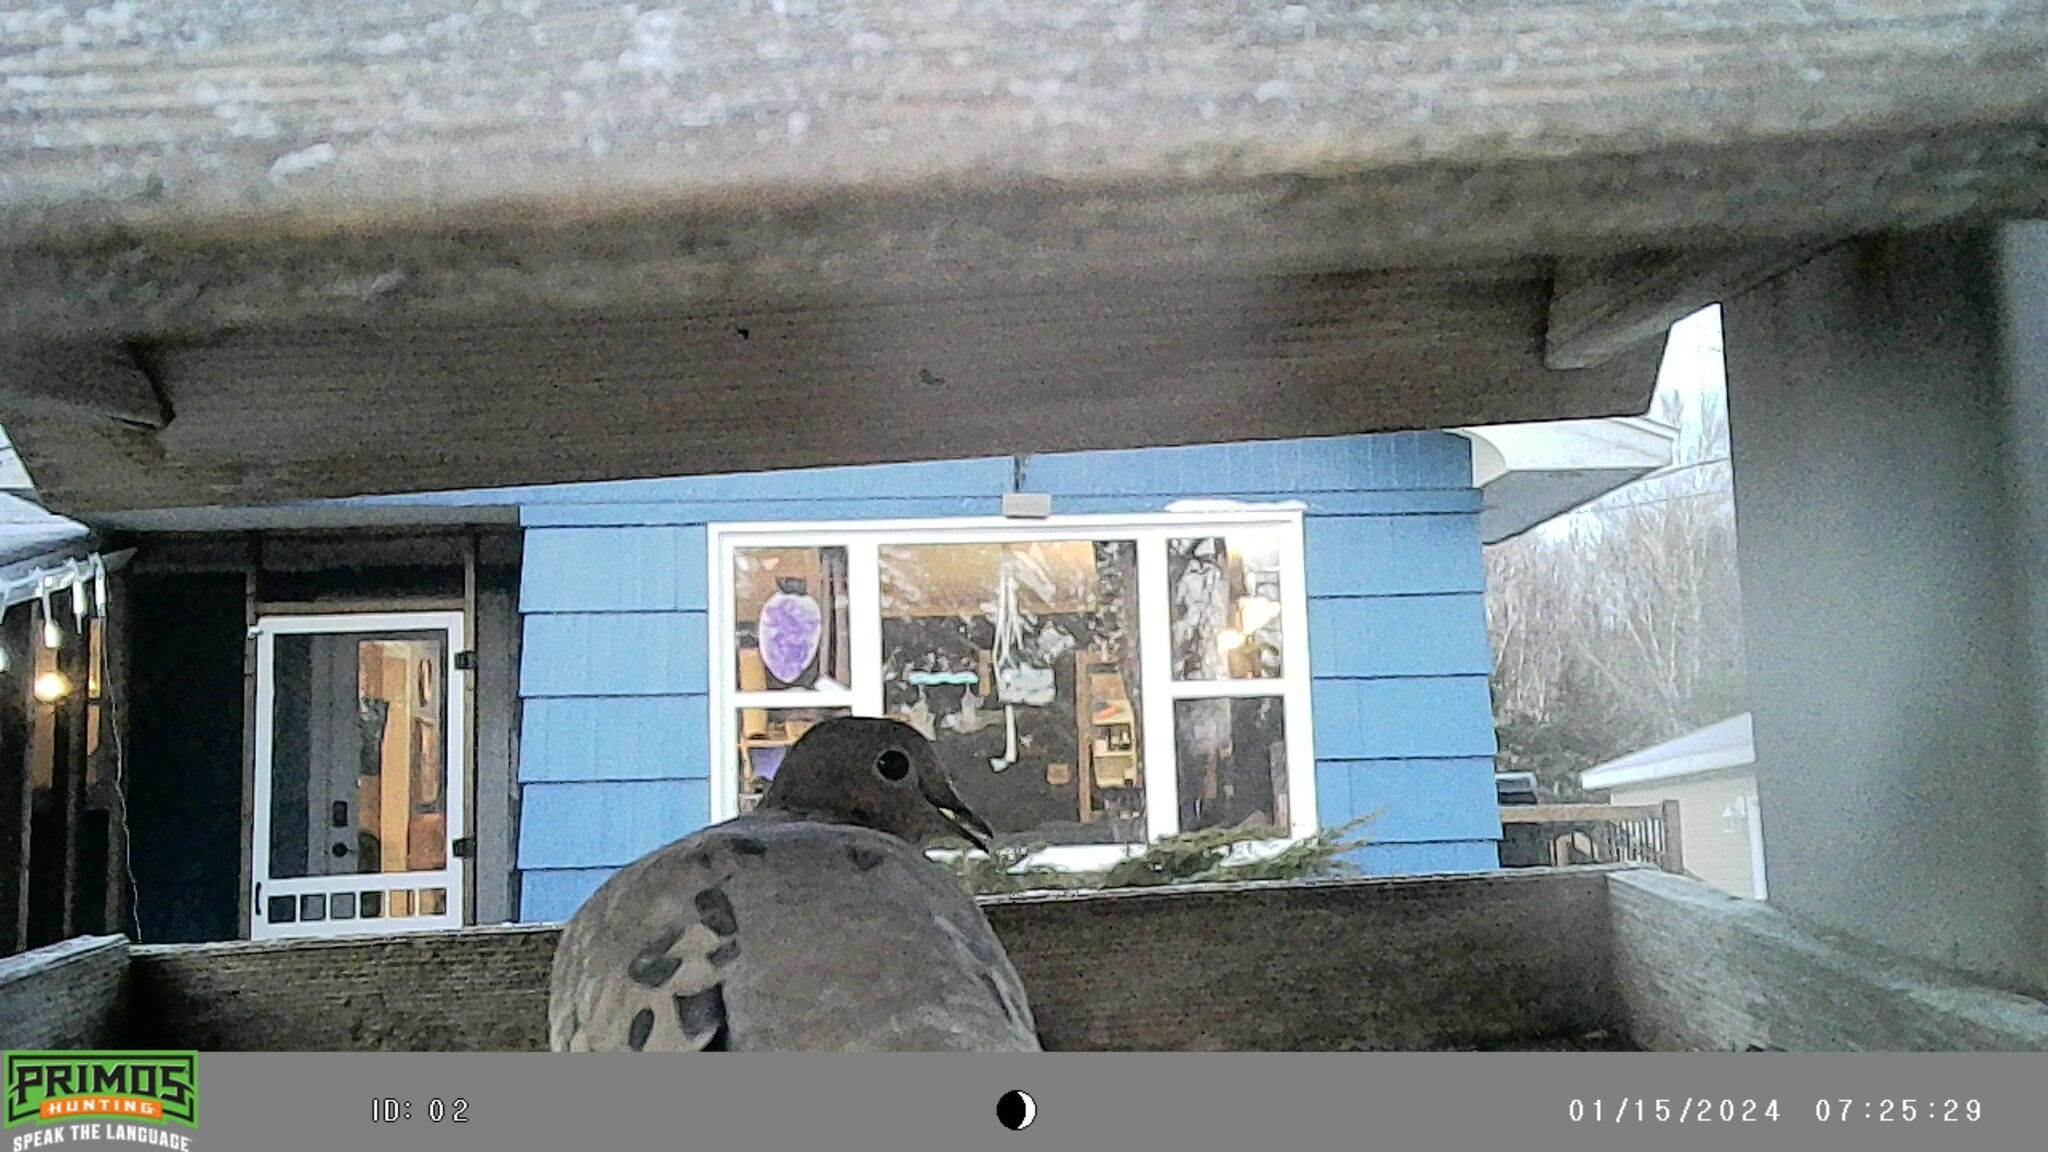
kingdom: Animalia
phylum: Chordata
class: Aves
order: Columbiformes
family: Columbidae
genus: Zenaida
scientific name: Zenaida macroura
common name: Mourning dove
